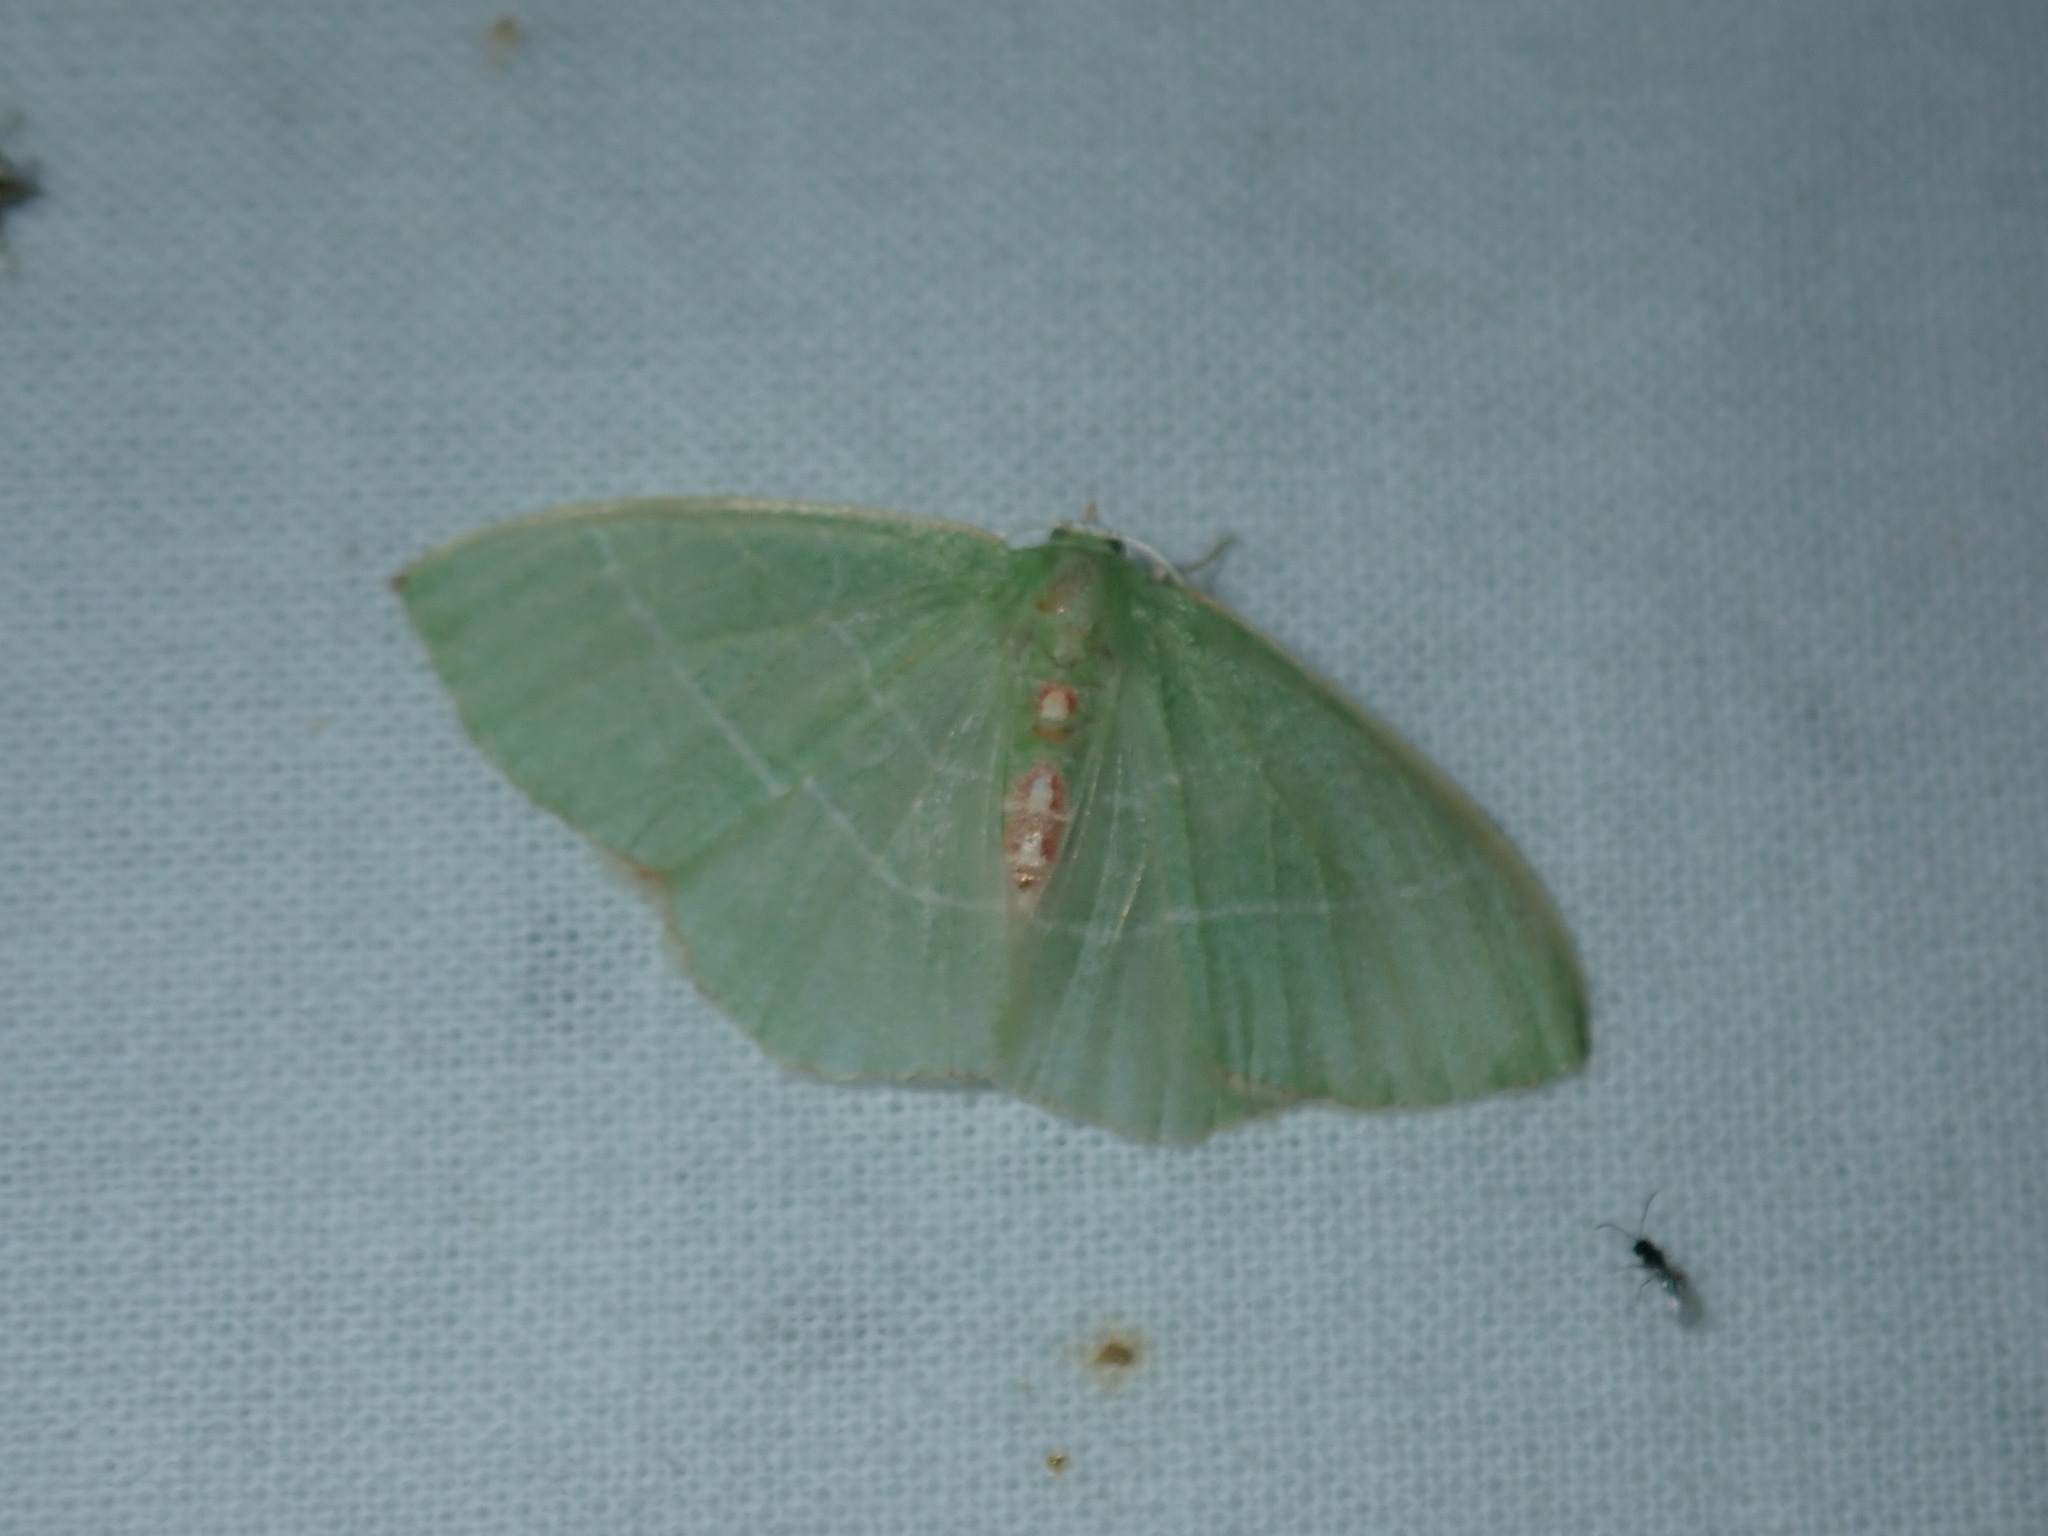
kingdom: Animalia
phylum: Arthropoda
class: Insecta
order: Lepidoptera
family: Geometridae
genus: Nemoria
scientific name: Nemoria bistriaria
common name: Red-fringed emerald
